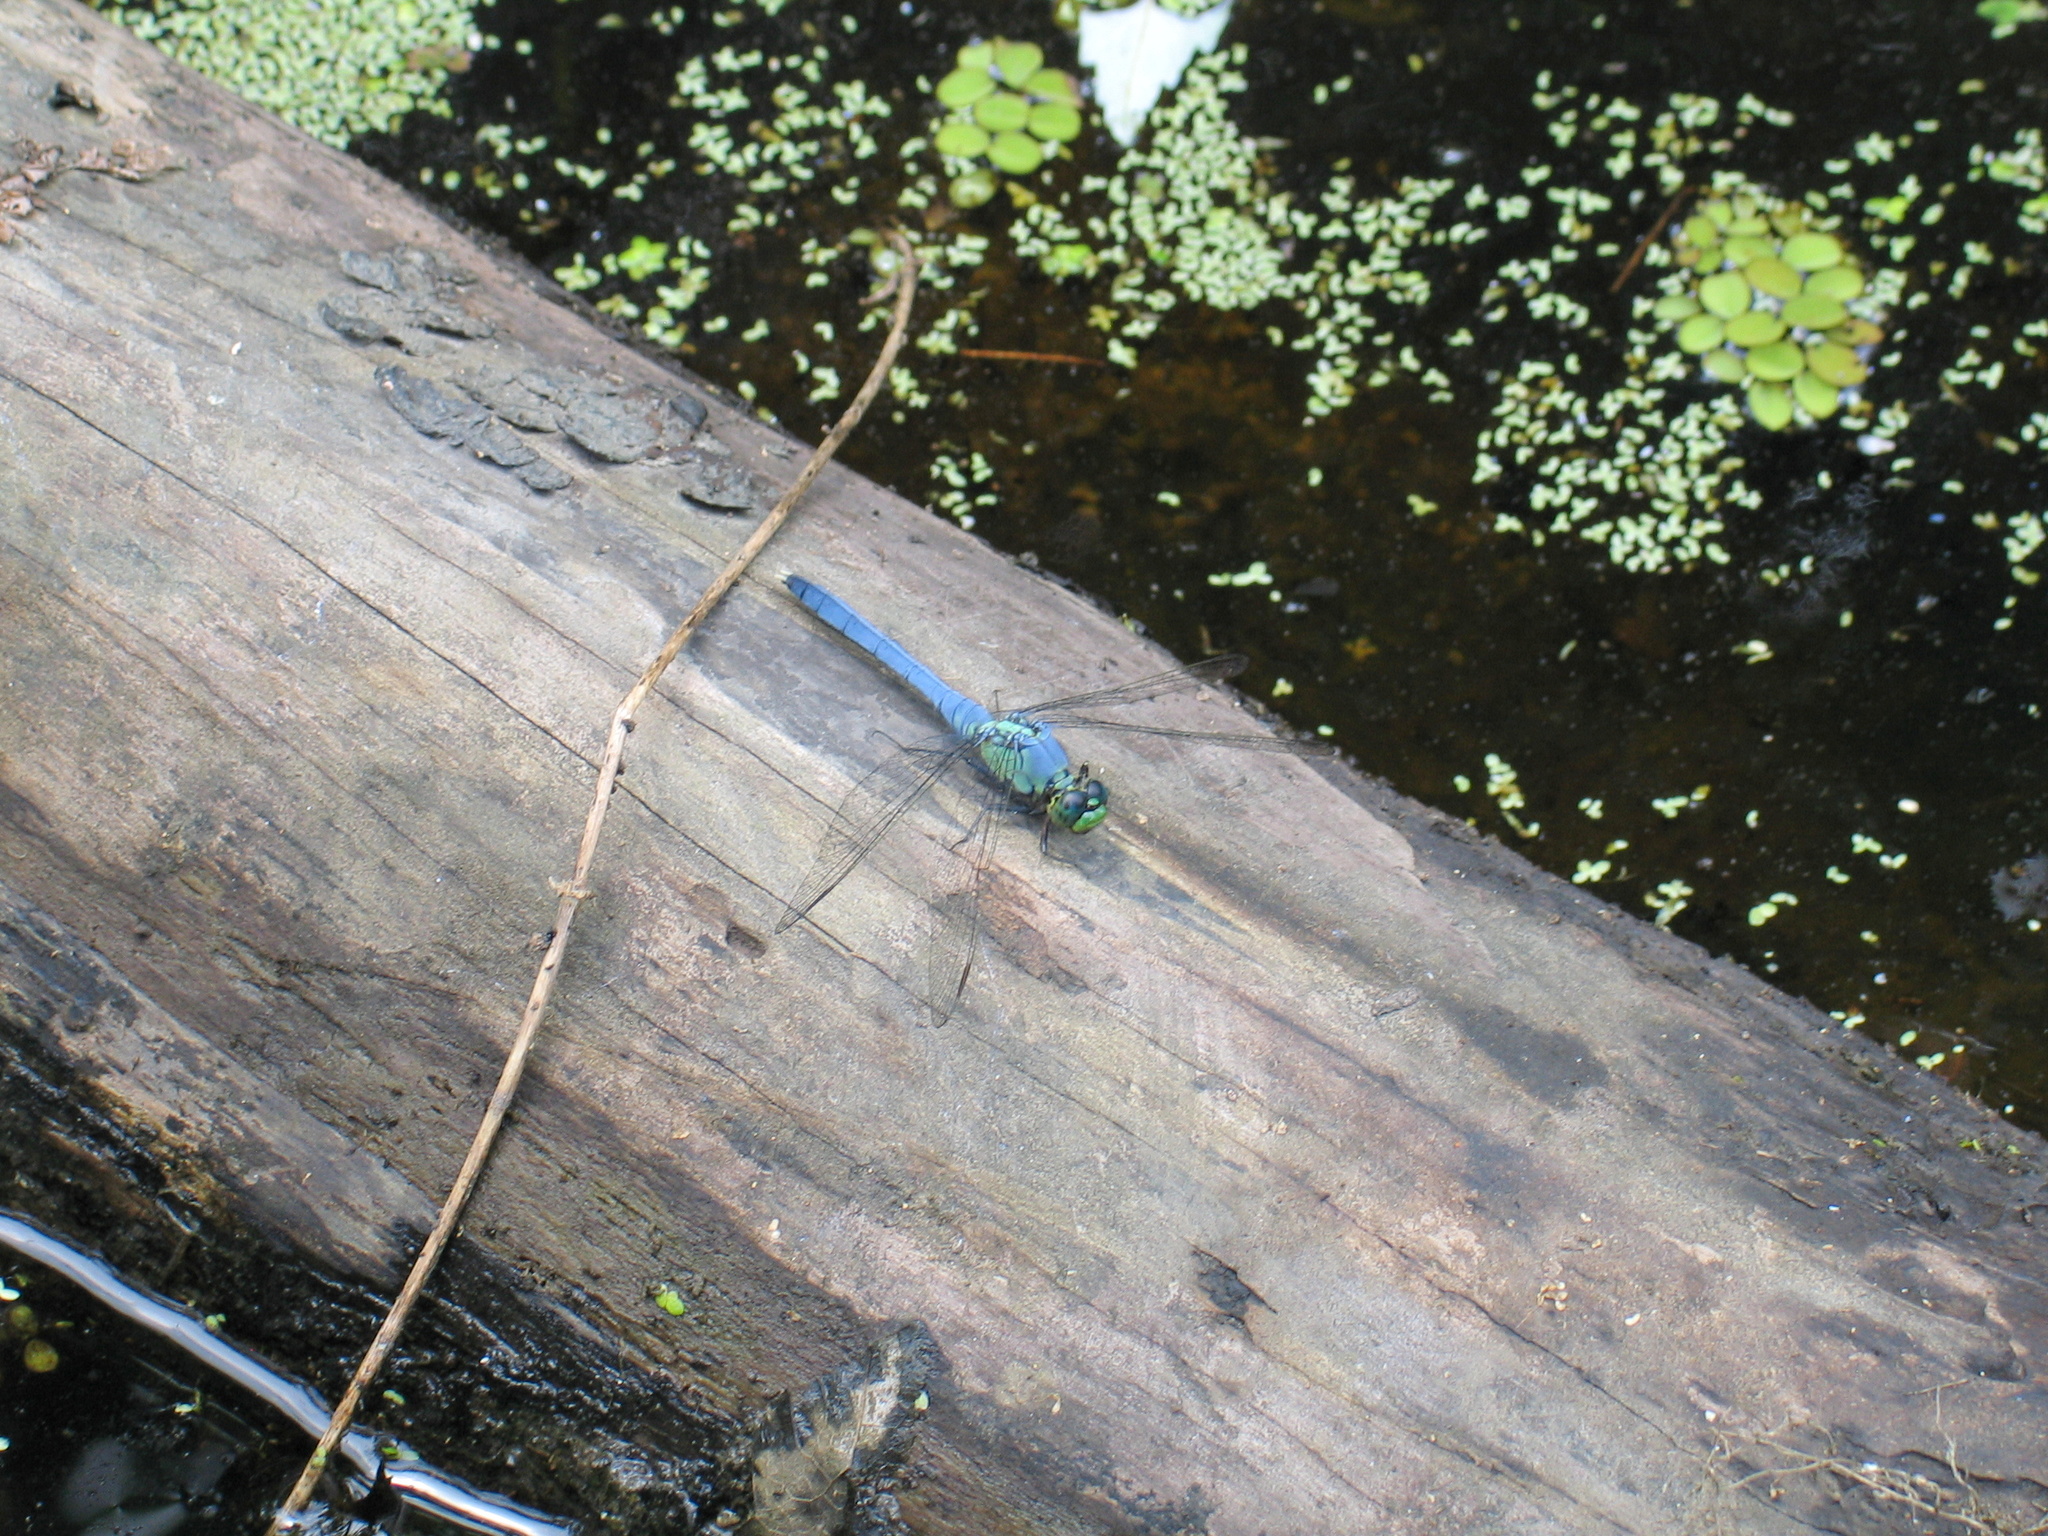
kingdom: Animalia
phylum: Arthropoda
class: Insecta
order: Odonata
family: Libellulidae
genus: Erythemis
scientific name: Erythemis simplicicollis
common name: Eastern pondhawk
